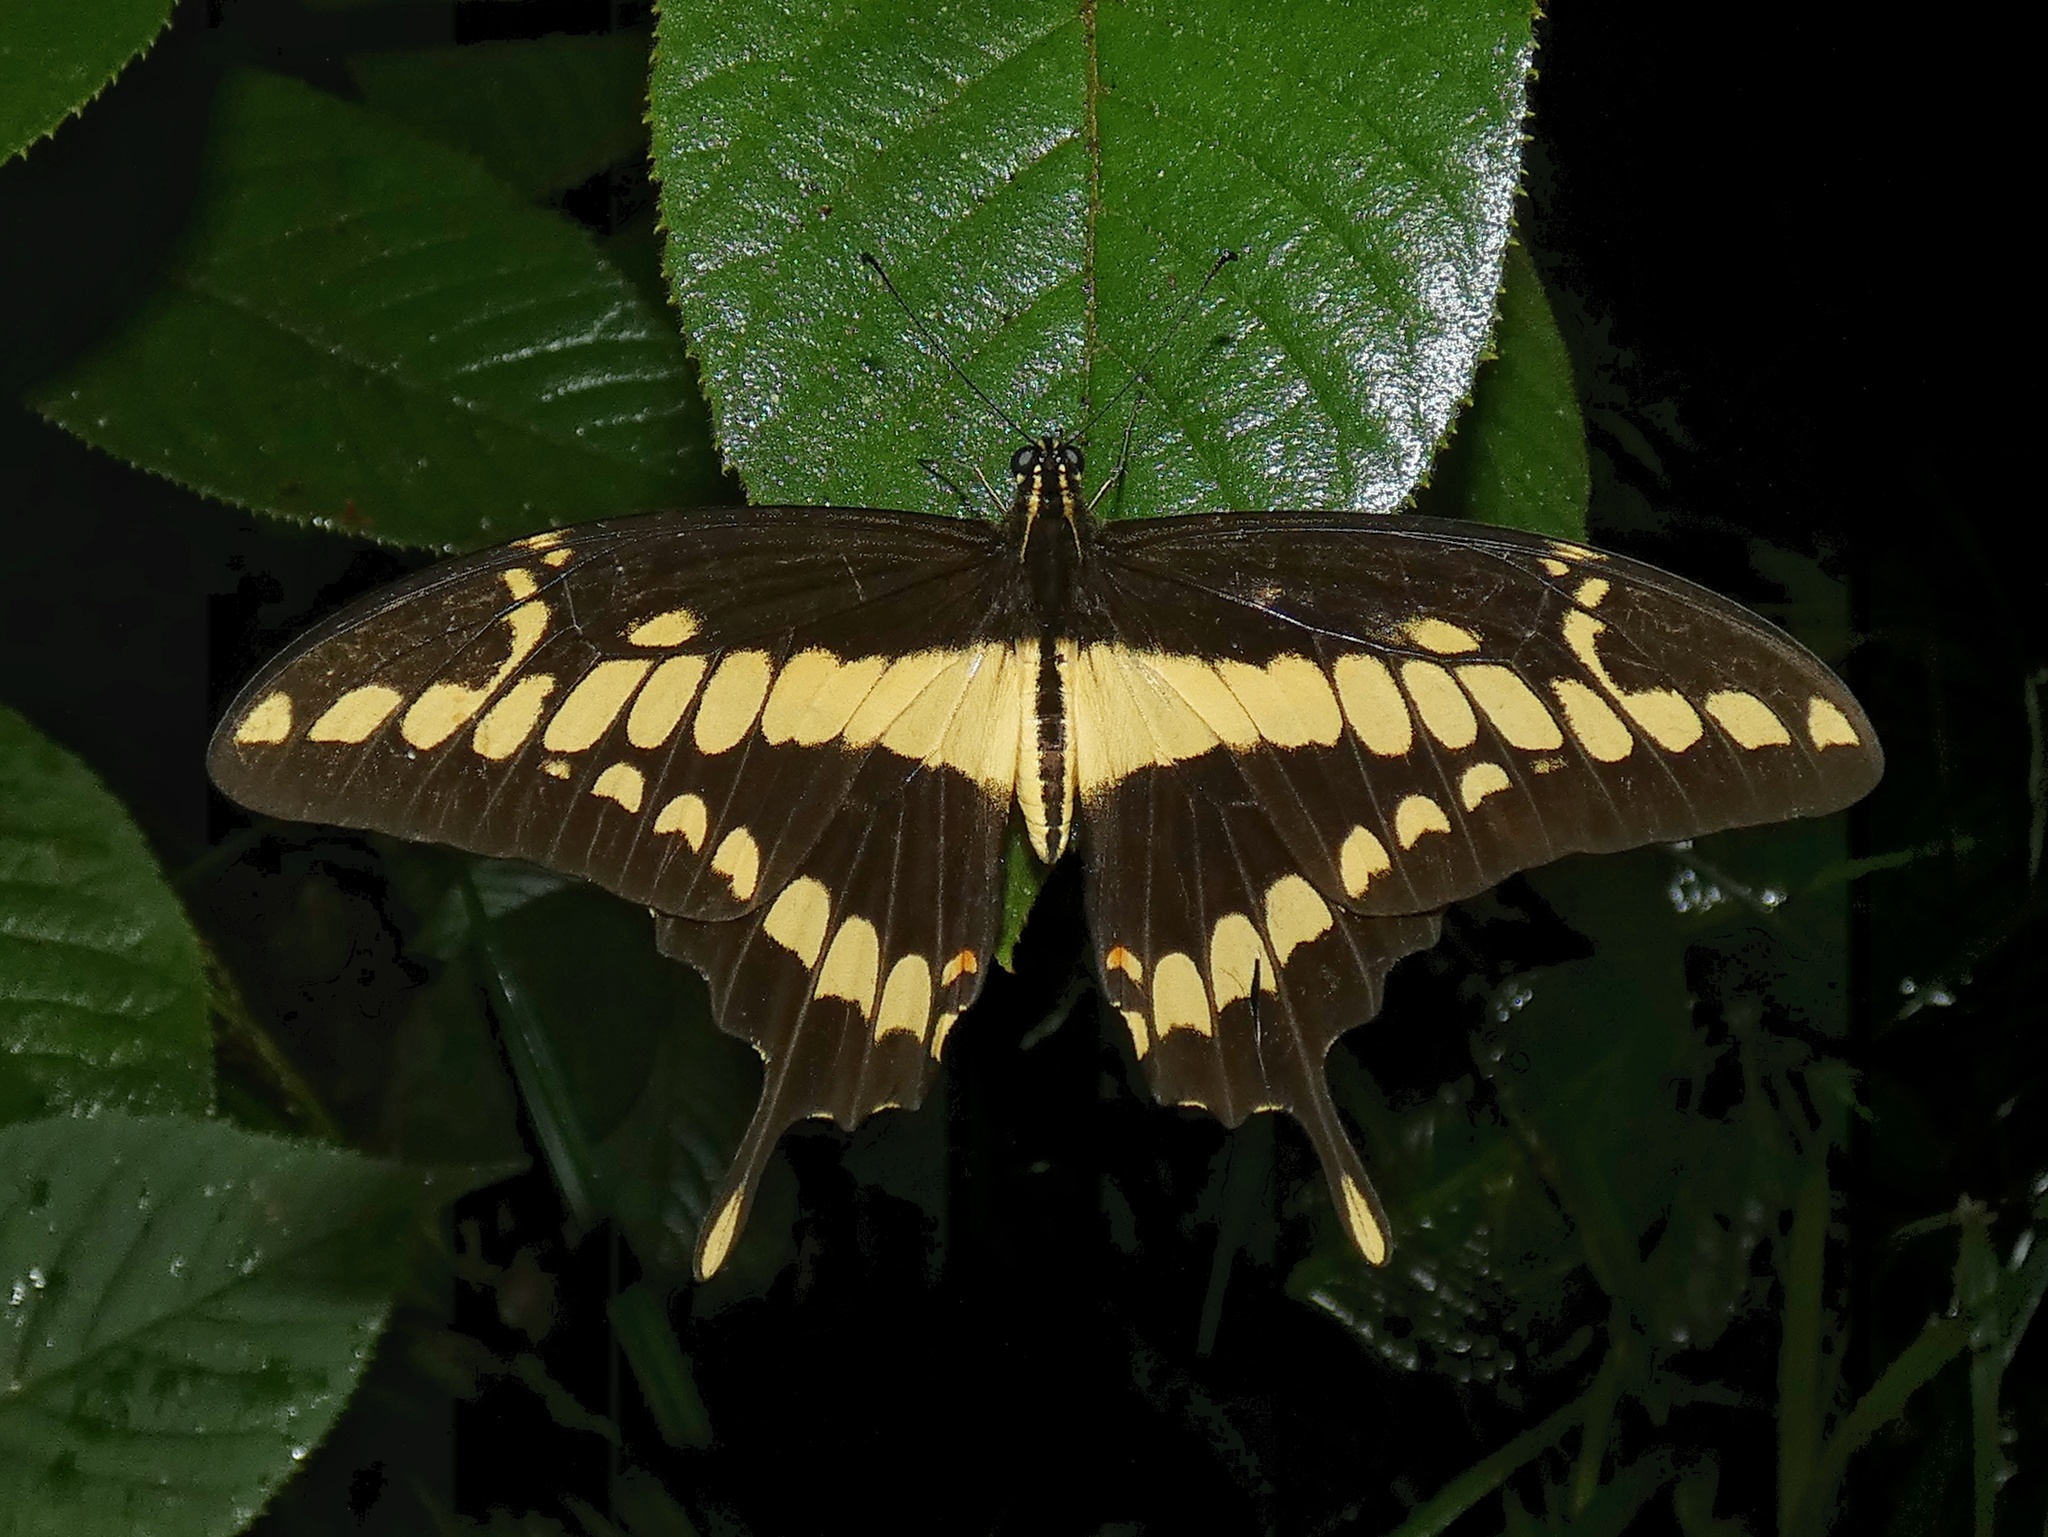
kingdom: Animalia
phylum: Arthropoda
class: Insecta
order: Lepidoptera
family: Papilionidae
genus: Papilio
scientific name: Papilio thoas
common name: King swallowtail
